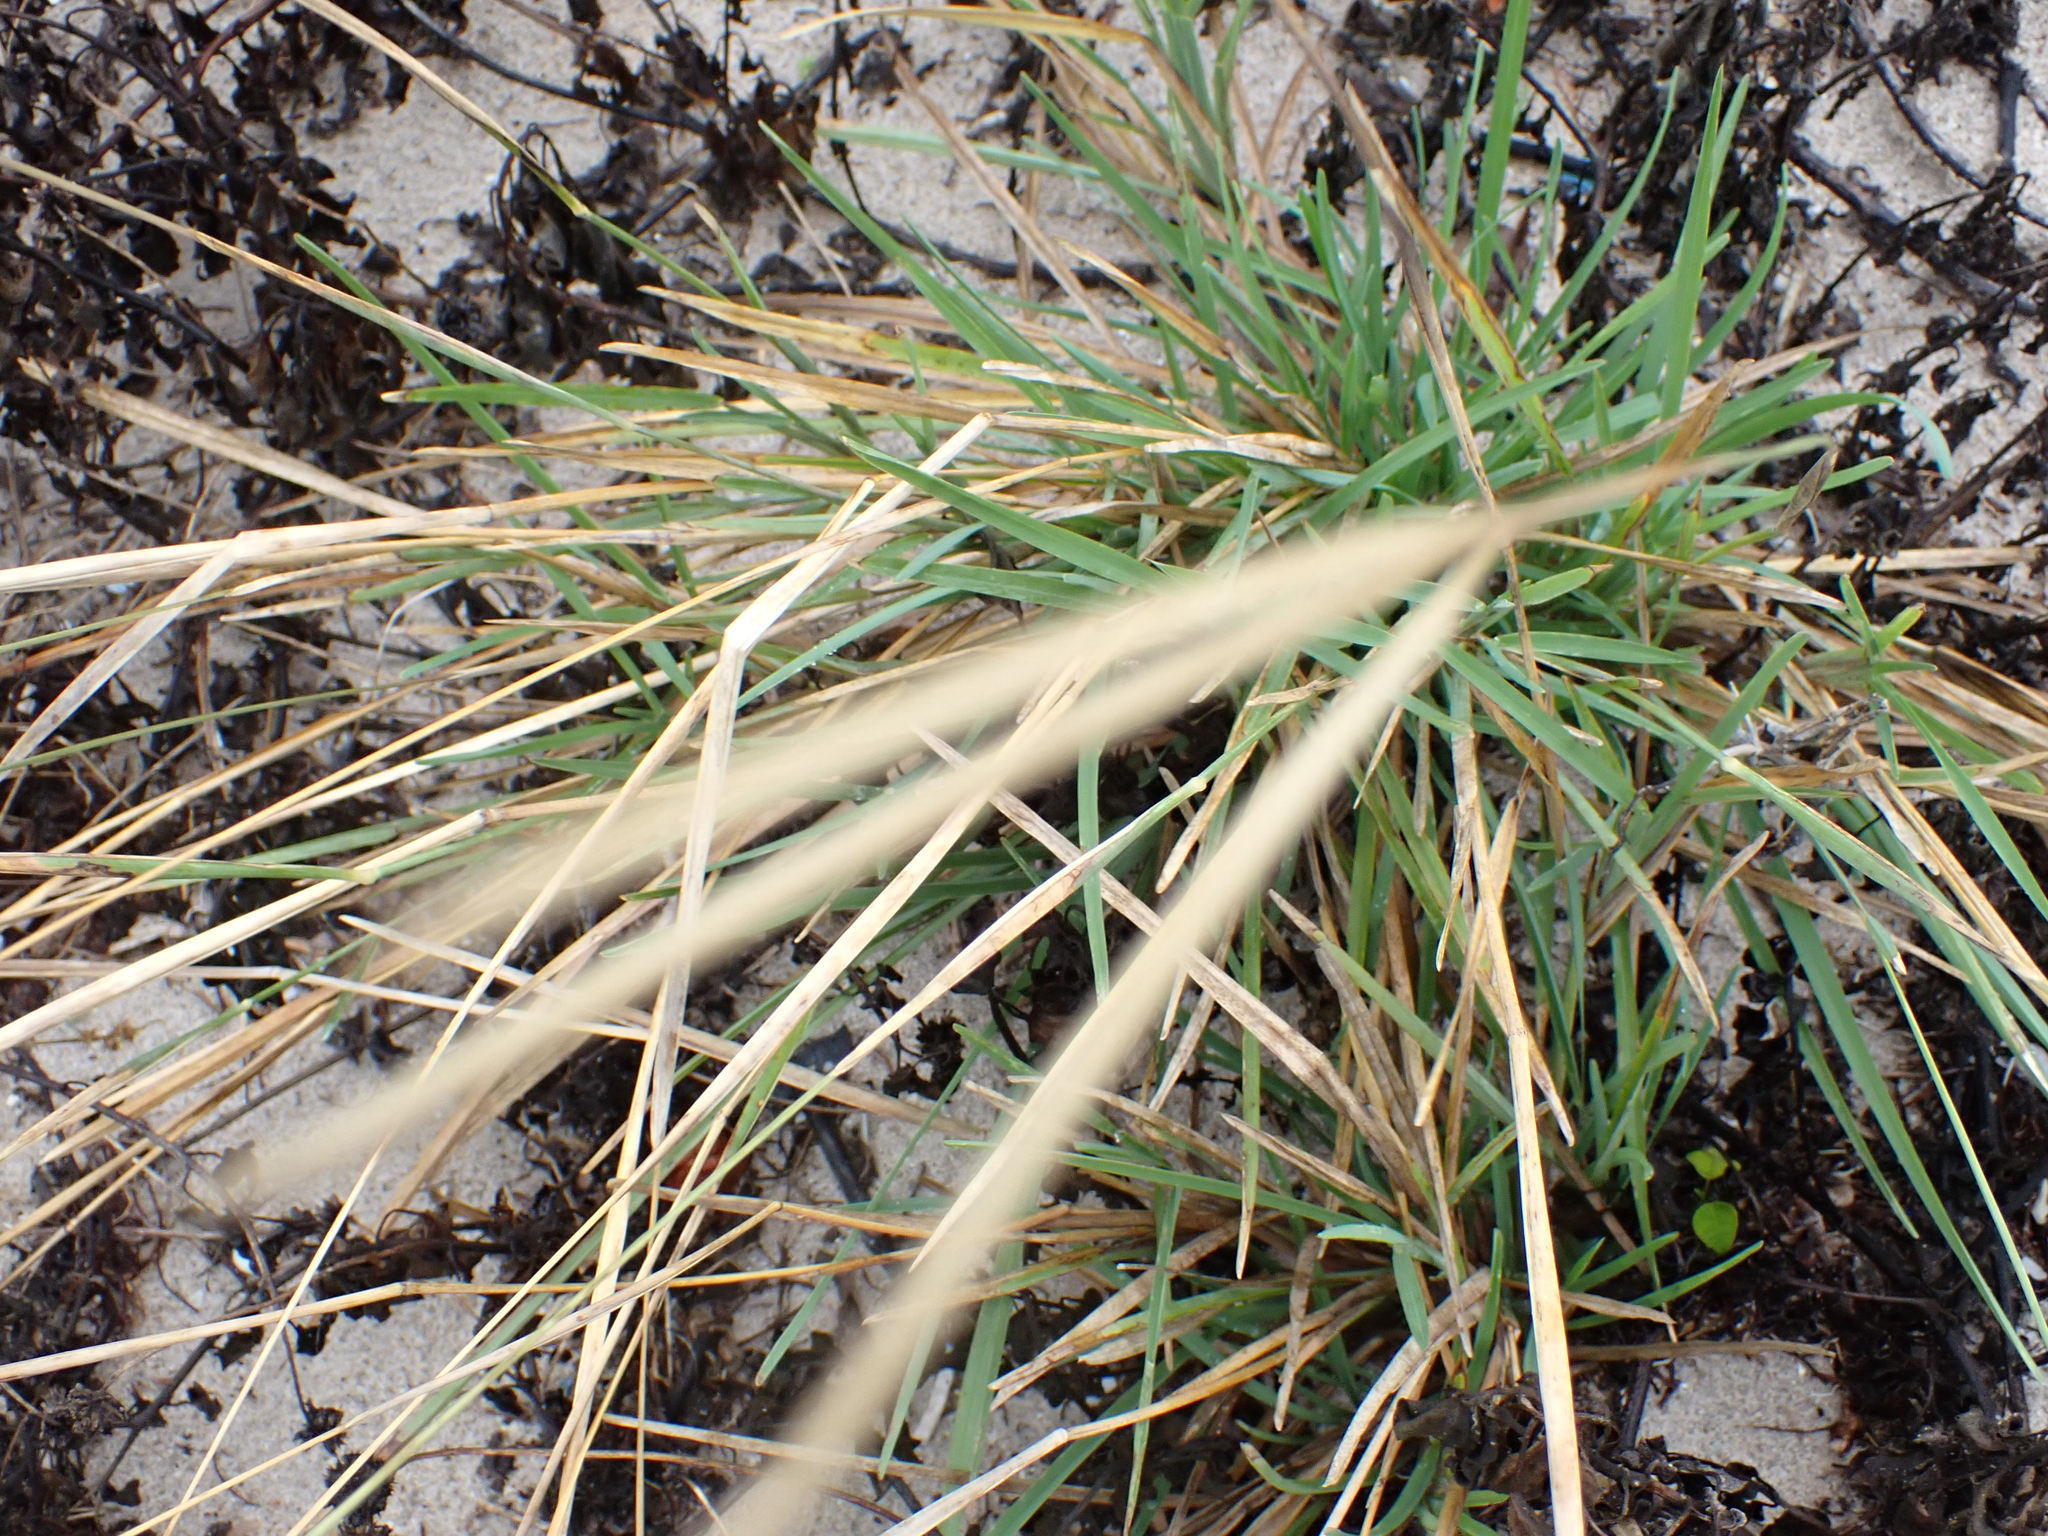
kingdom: Plantae
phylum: Tracheophyta
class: Liliopsida
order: Poales
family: Poaceae
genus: Eustachys
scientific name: Eustachys petraea
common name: Pinewoods fingergrass
